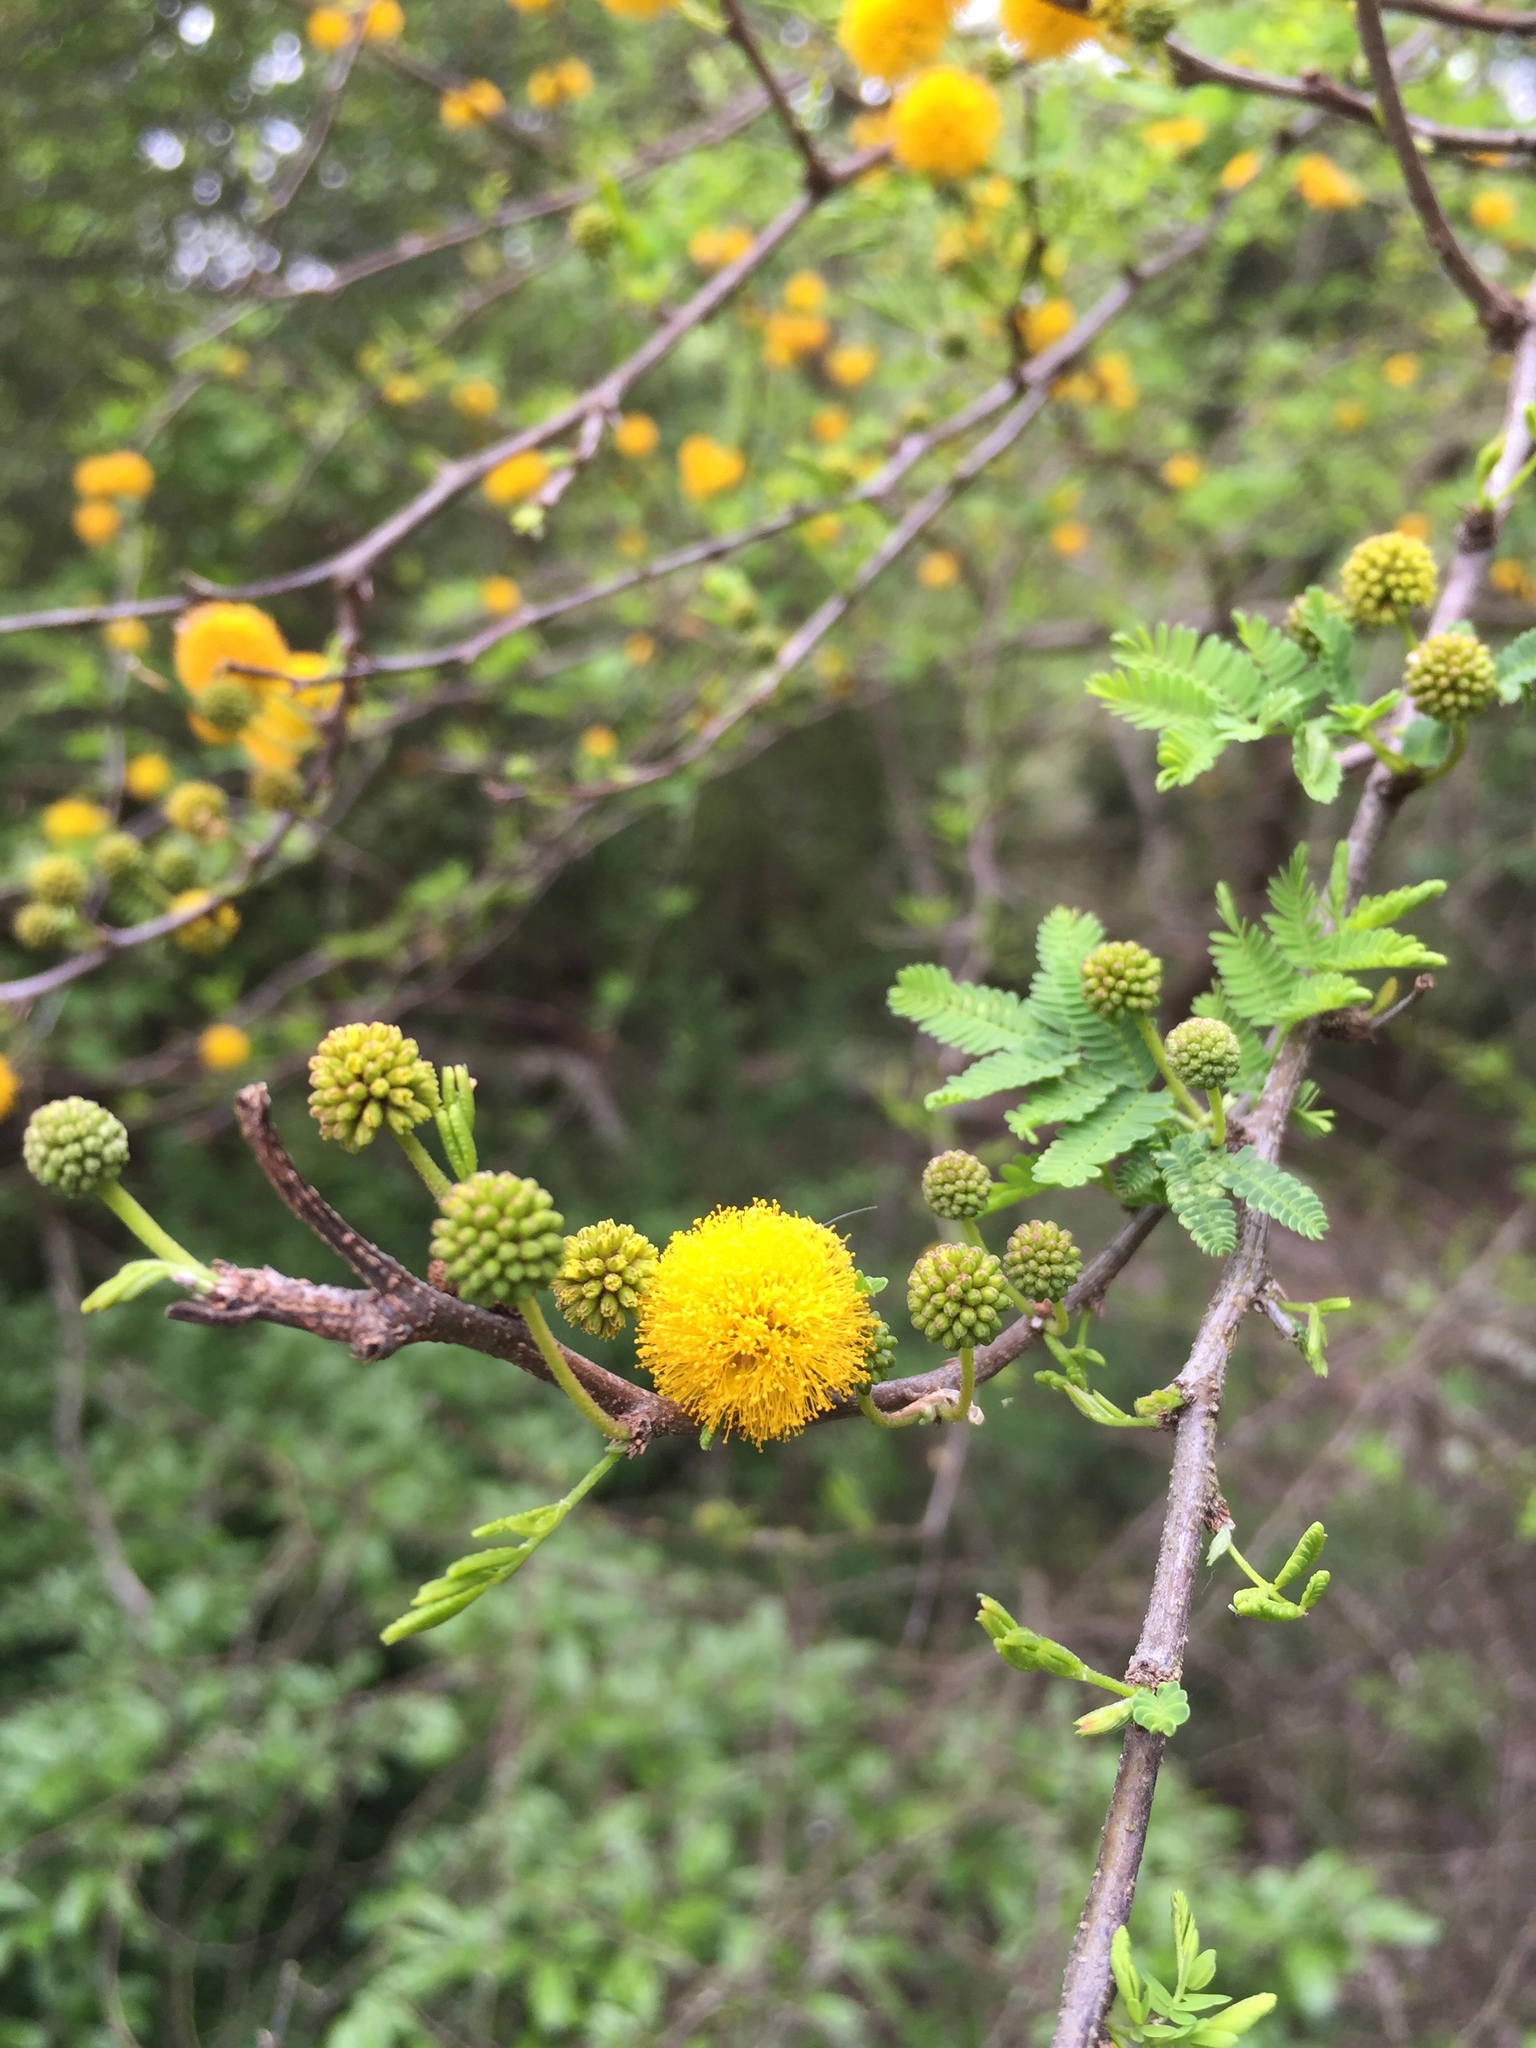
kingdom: Plantae
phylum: Tracheophyta
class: Magnoliopsida
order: Fabales
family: Fabaceae
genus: Vachellia
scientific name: Vachellia farnesiana
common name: Sweet acacia
